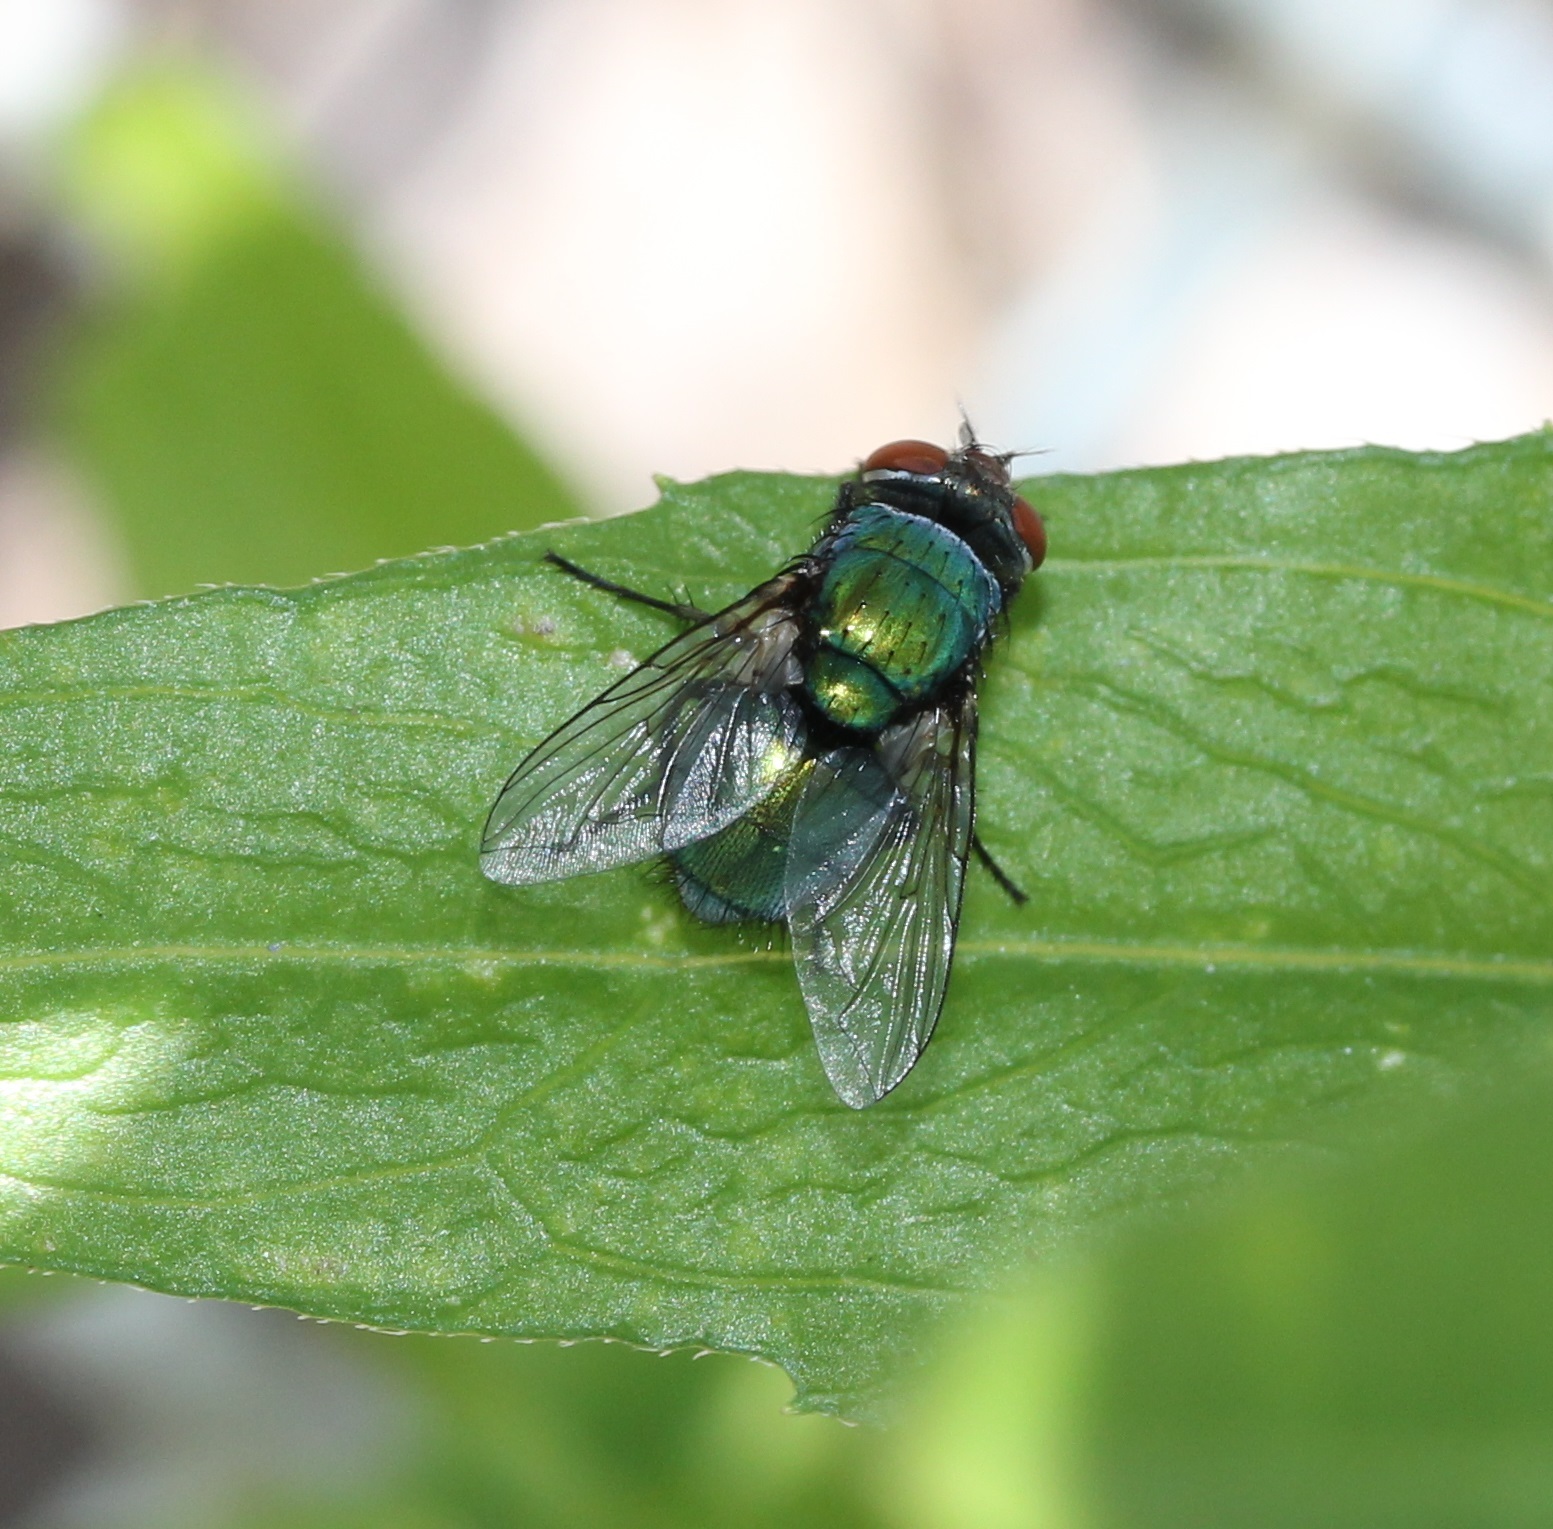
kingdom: Animalia
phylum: Arthropoda
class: Insecta
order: Diptera
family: Calliphoridae
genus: Lucilia
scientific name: Lucilia sericata
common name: Blow fly
